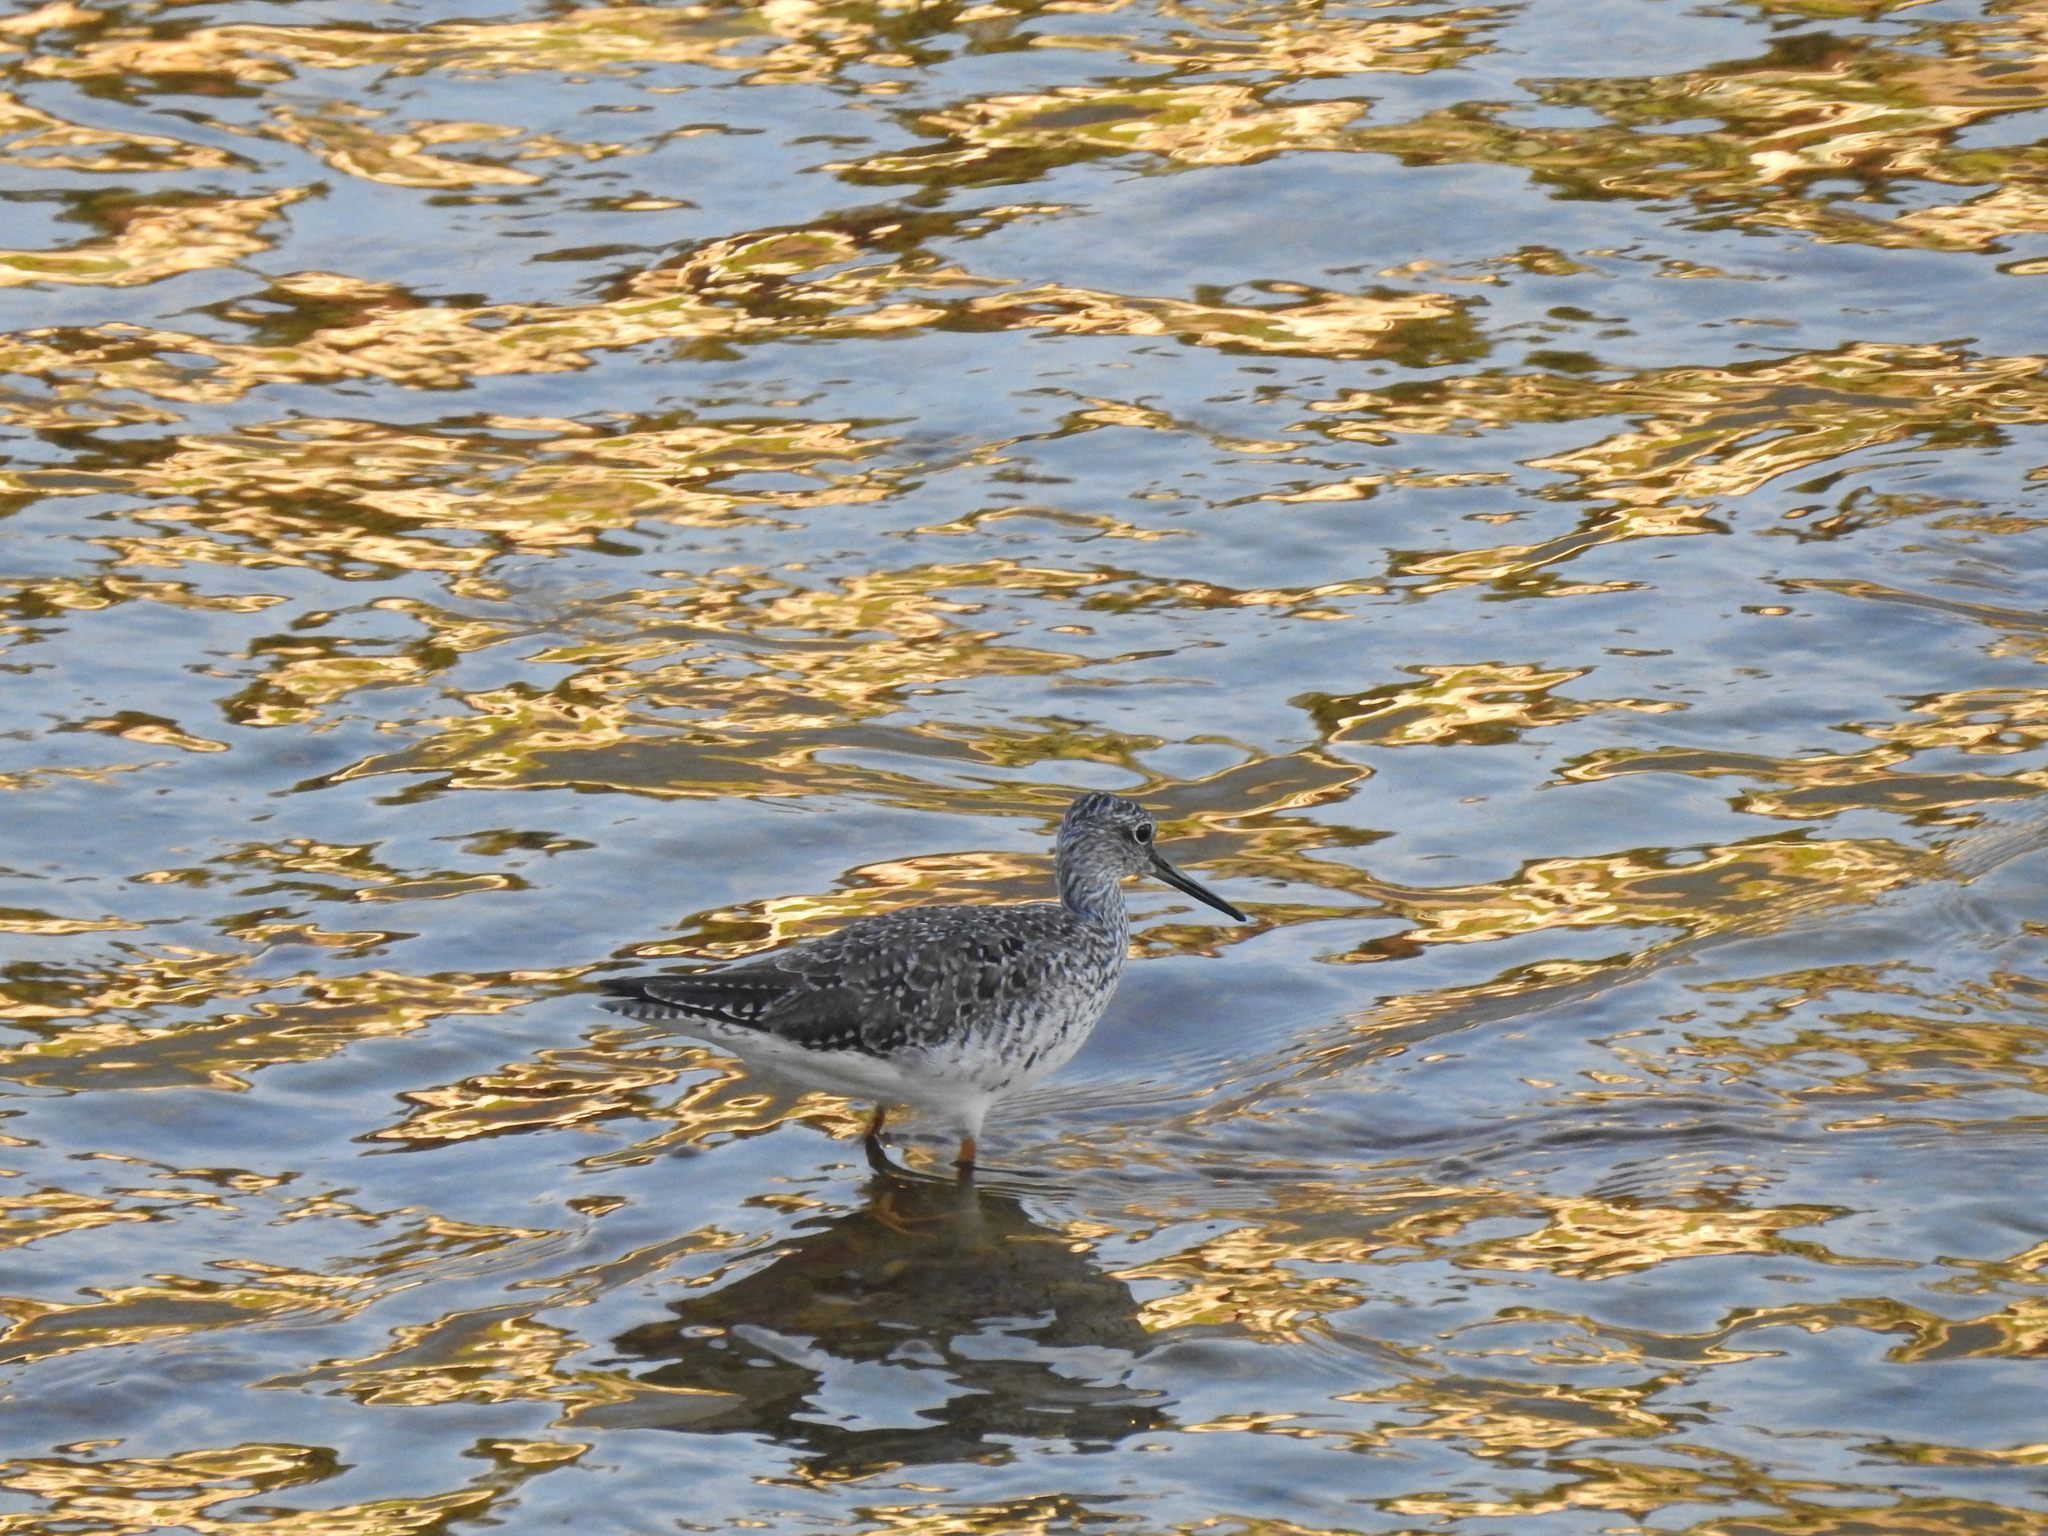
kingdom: Animalia
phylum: Chordata
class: Aves
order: Charadriiformes
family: Scolopacidae
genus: Tringa
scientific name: Tringa melanoleuca
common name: Greater yellowlegs
